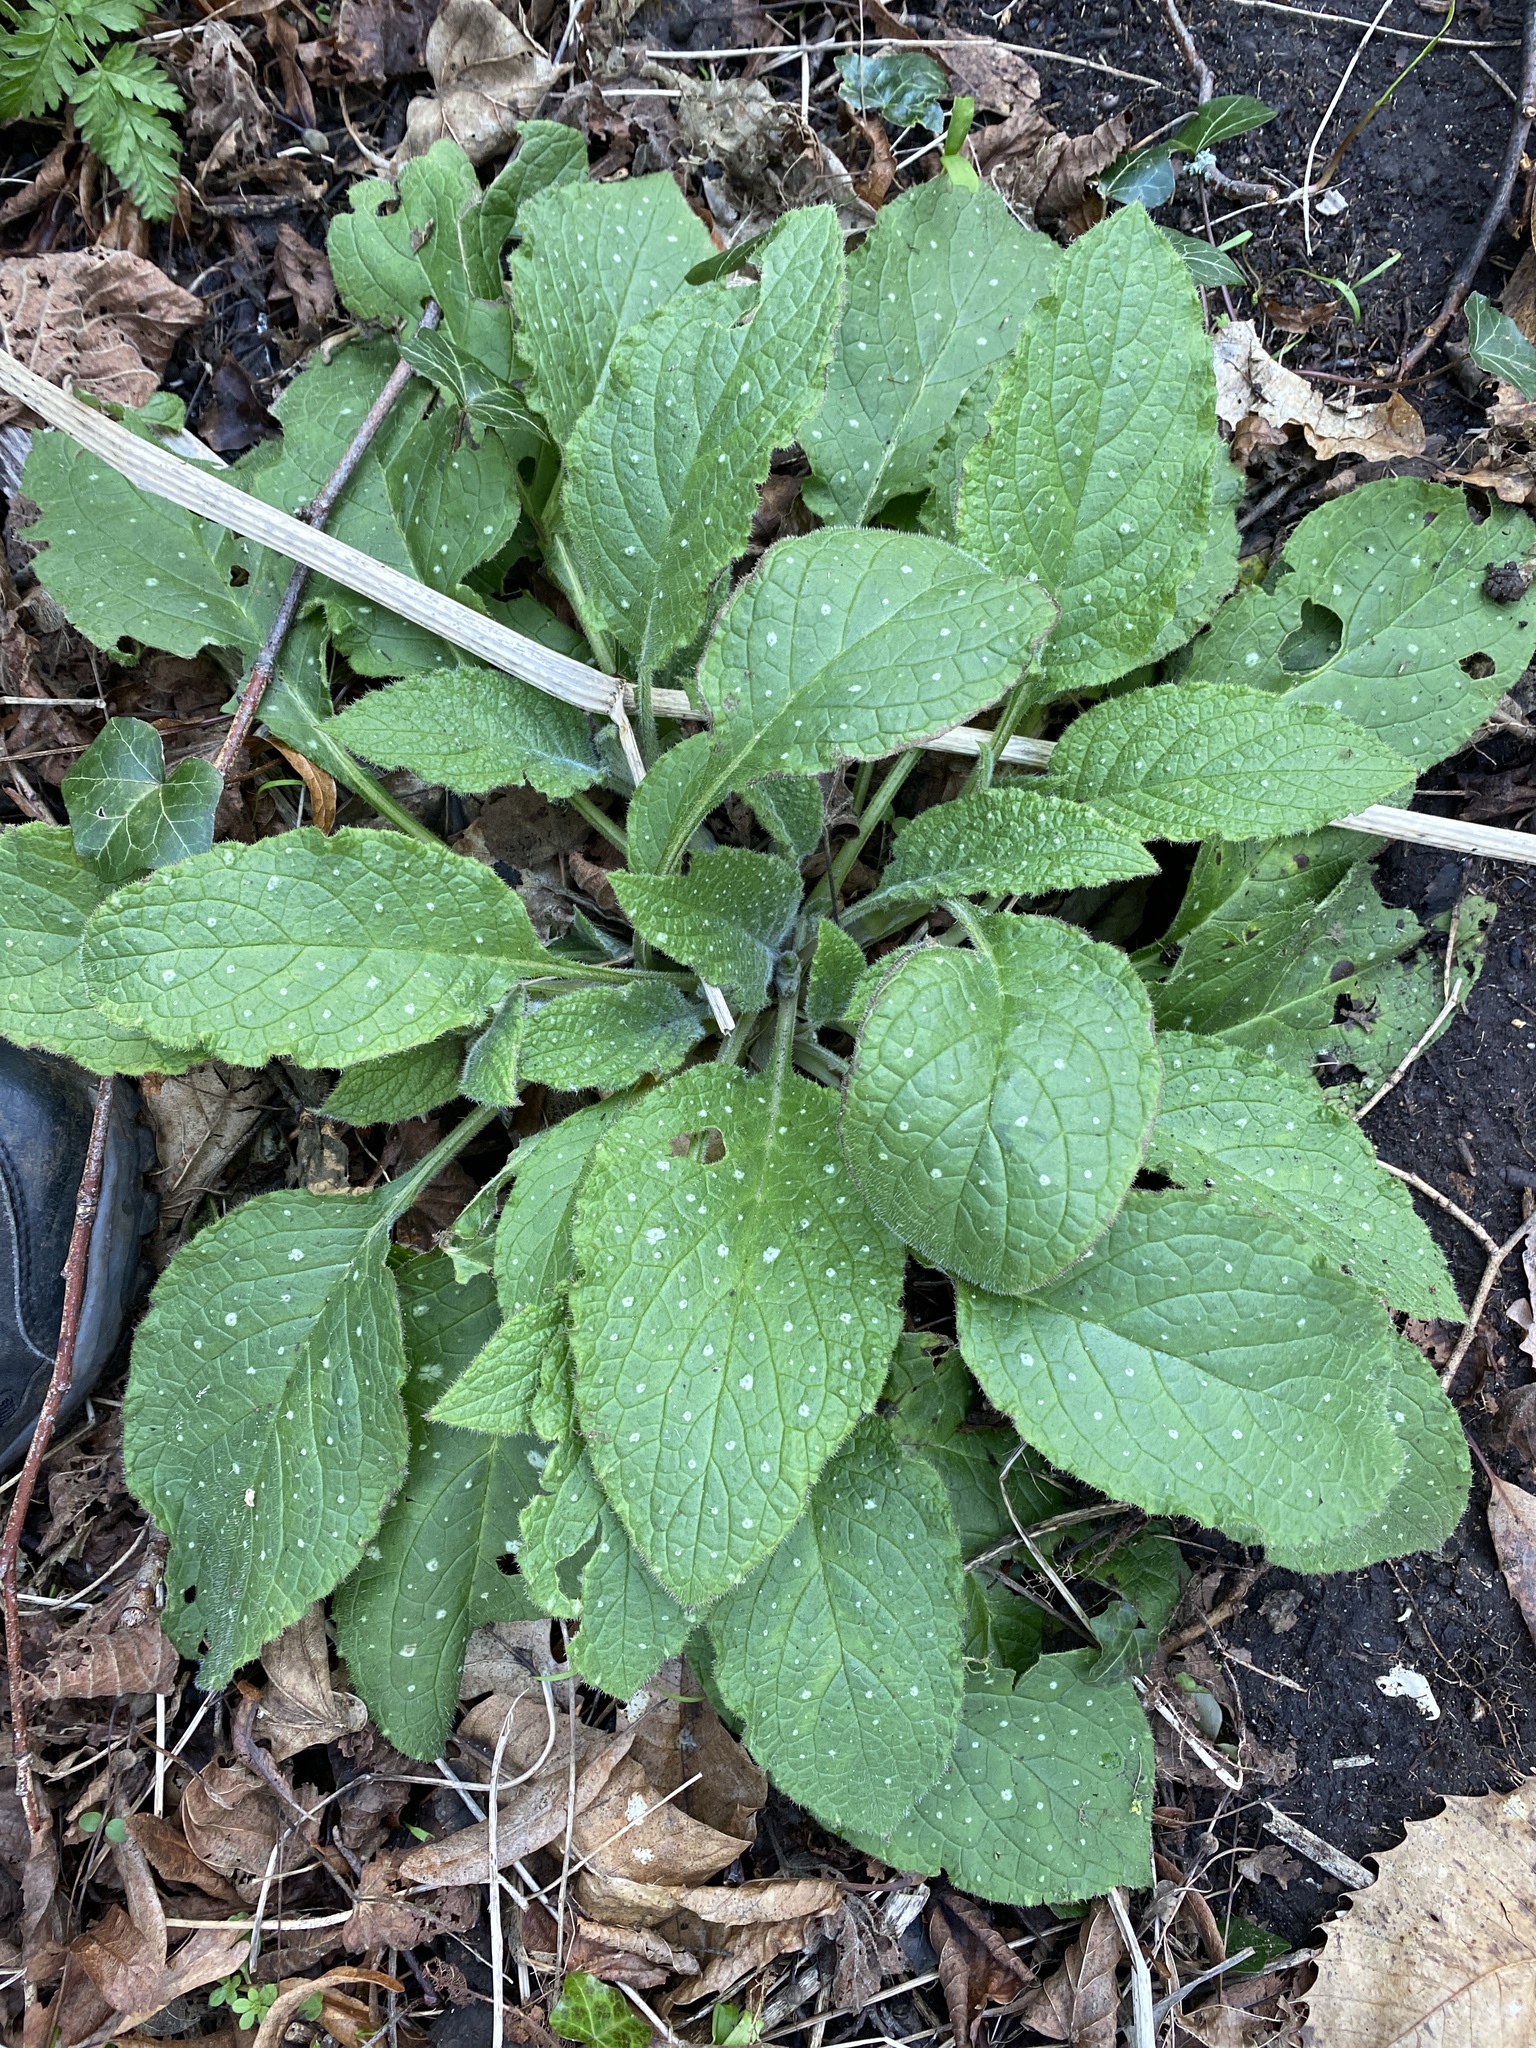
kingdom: Plantae
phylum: Tracheophyta
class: Magnoliopsida
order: Boraginales
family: Boraginaceae
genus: Pentaglottis
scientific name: Pentaglottis sempervirens
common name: Green alkanet
